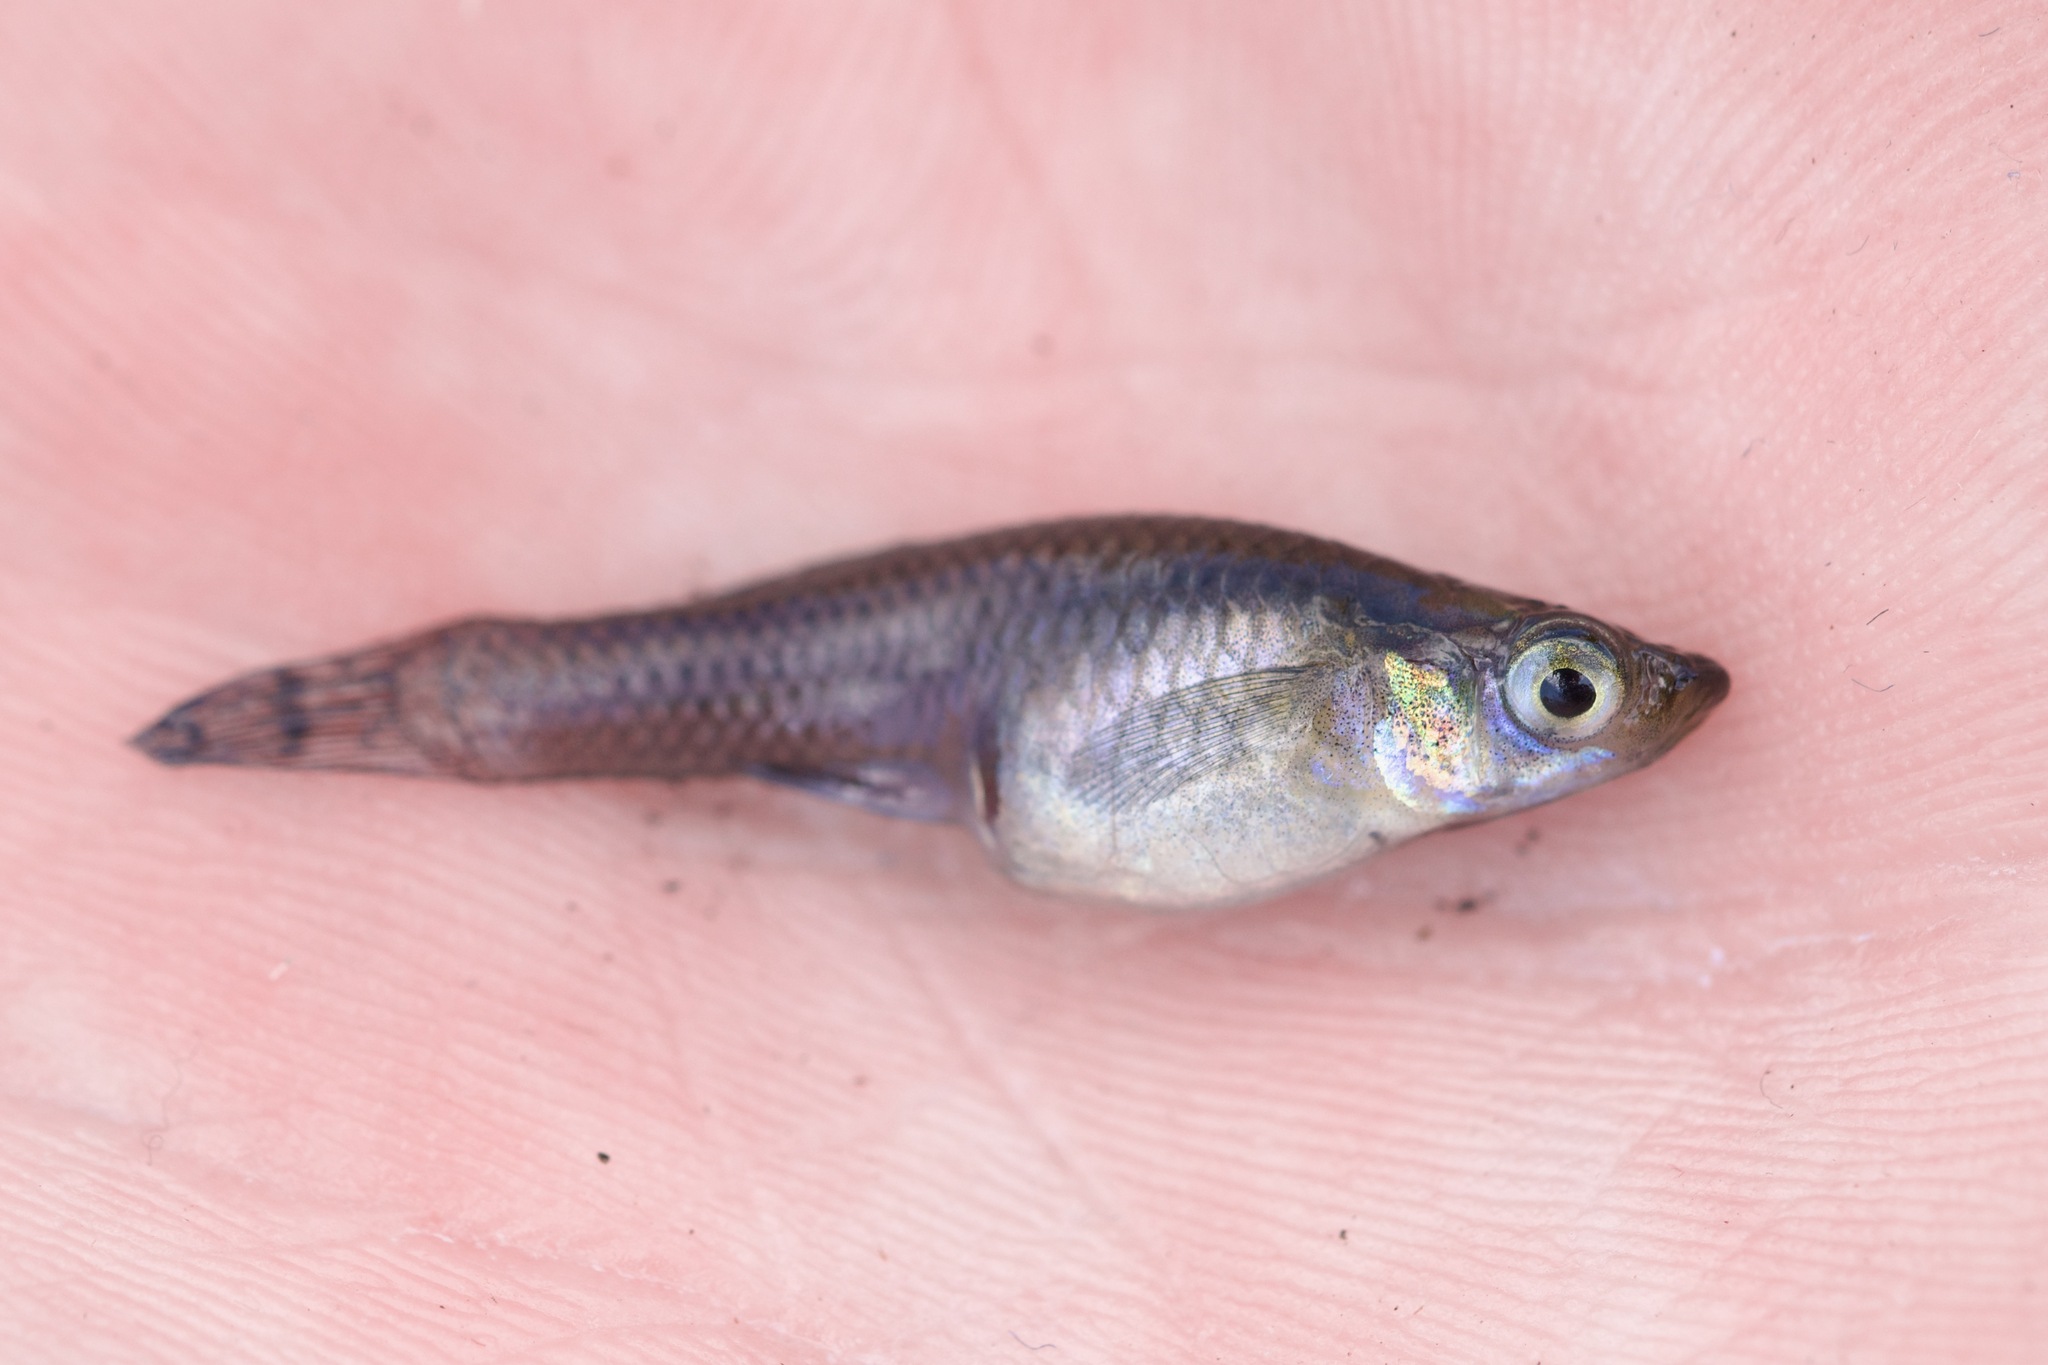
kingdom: Animalia
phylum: Chordata
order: Cyprinodontiformes
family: Poeciliidae
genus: Gambusia
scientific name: Gambusia holbrooki
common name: Eastern mosquitofish
